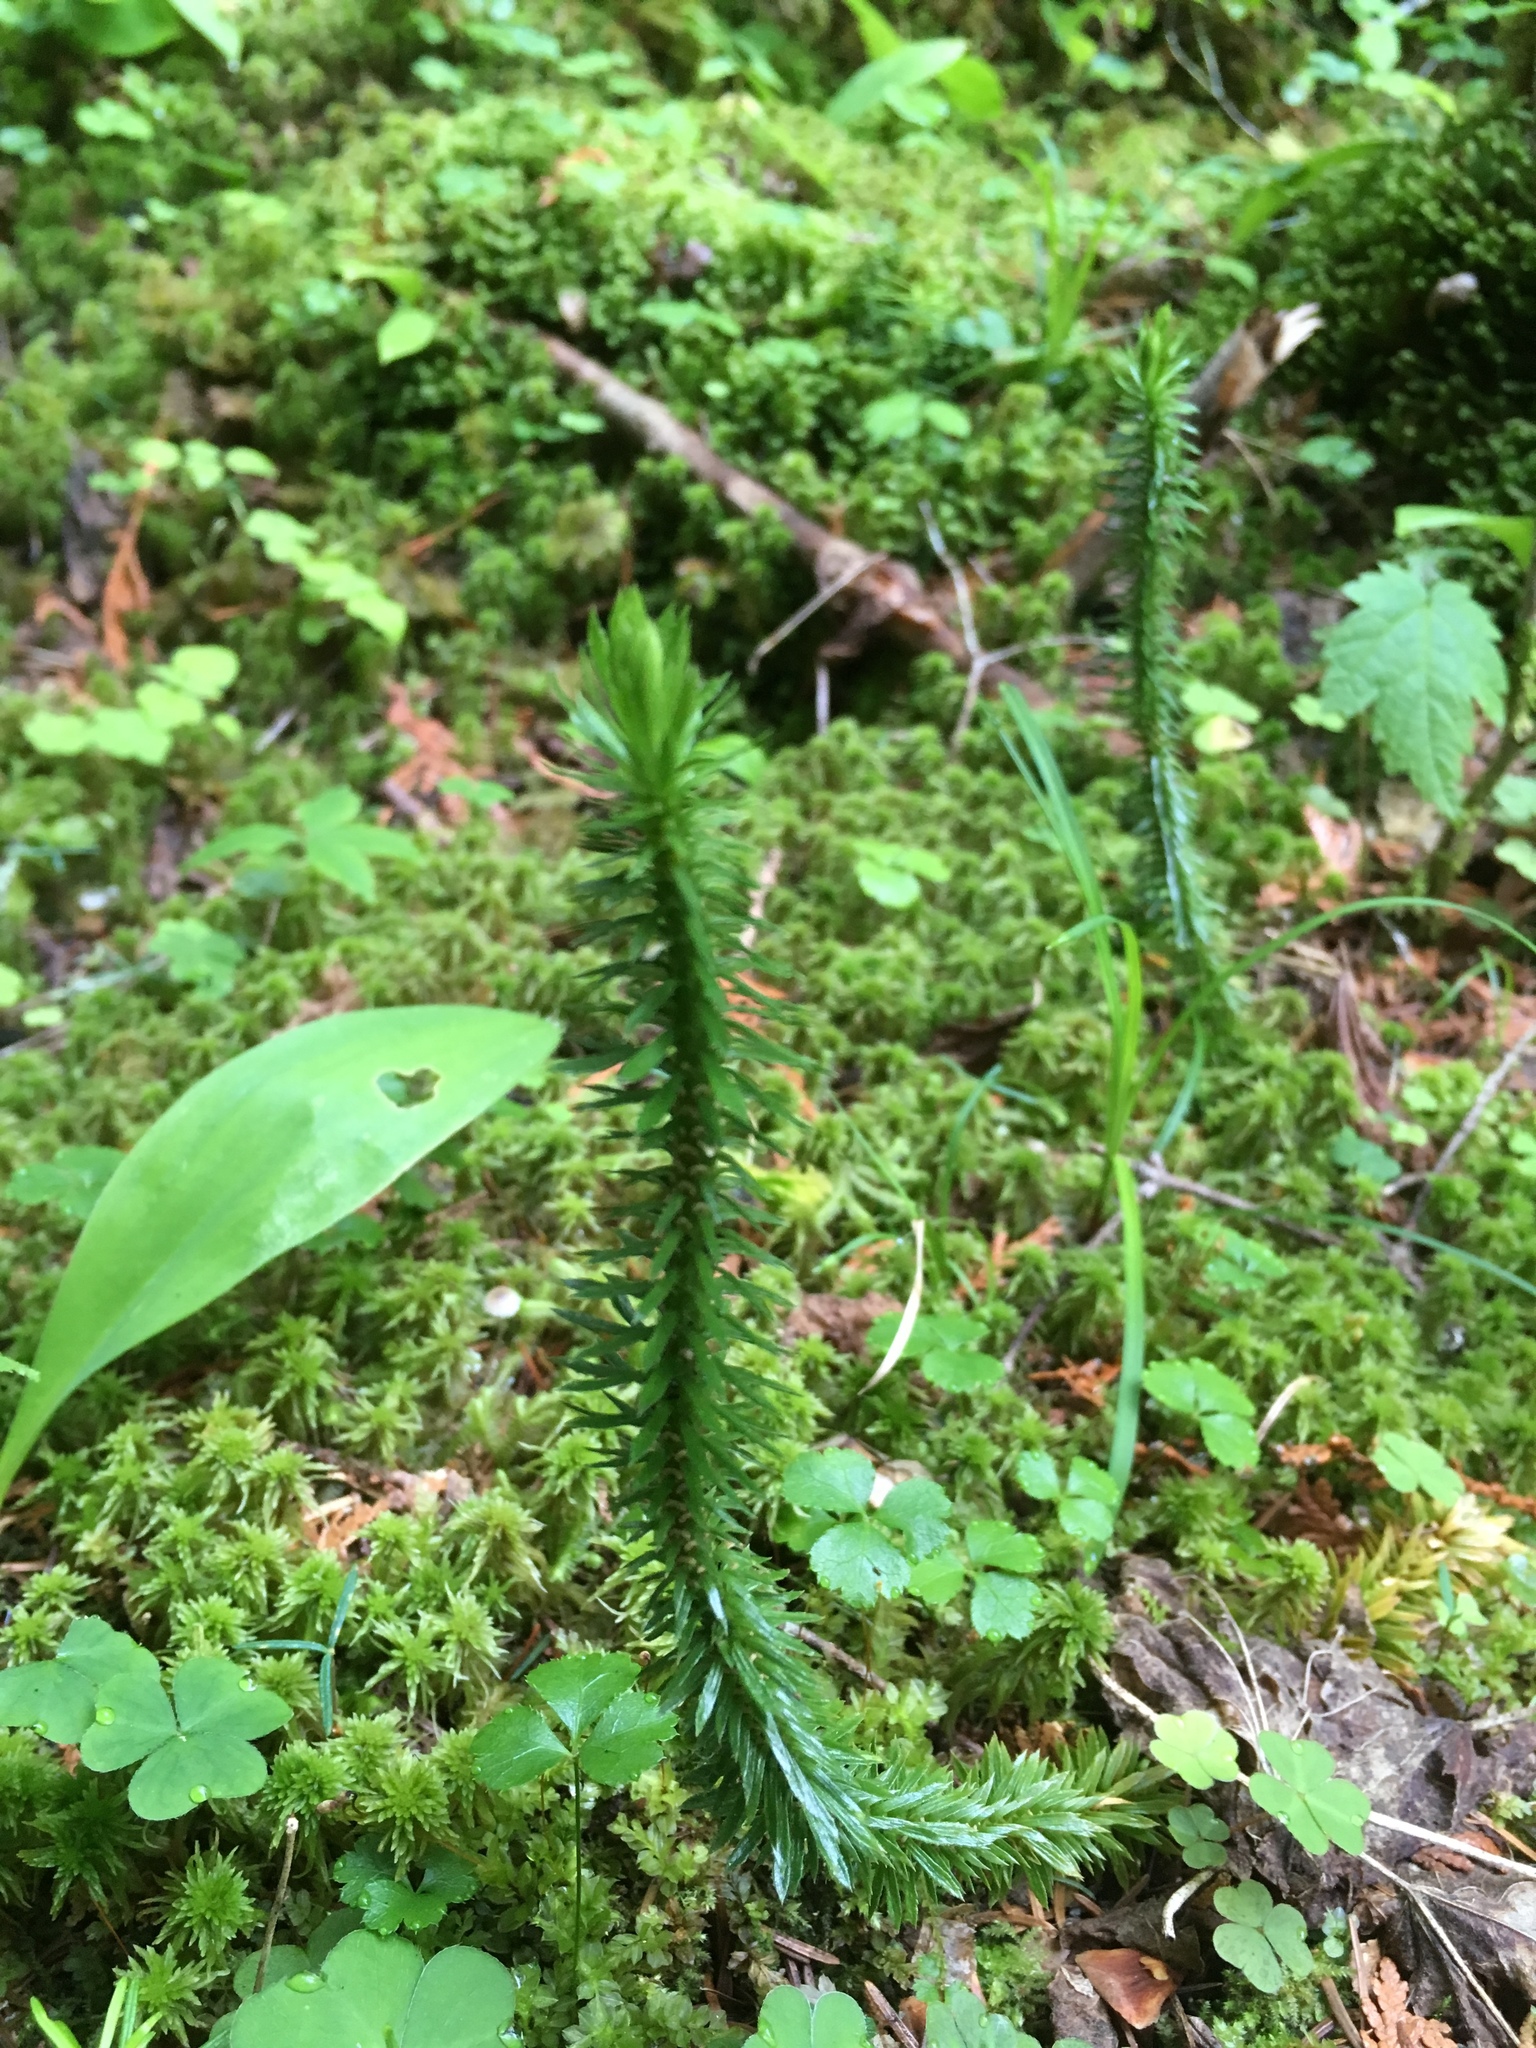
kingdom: Plantae
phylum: Tracheophyta
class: Lycopodiopsida
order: Lycopodiales
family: Lycopodiaceae
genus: Huperzia
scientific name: Huperzia lucidula
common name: Shining clubmoss
